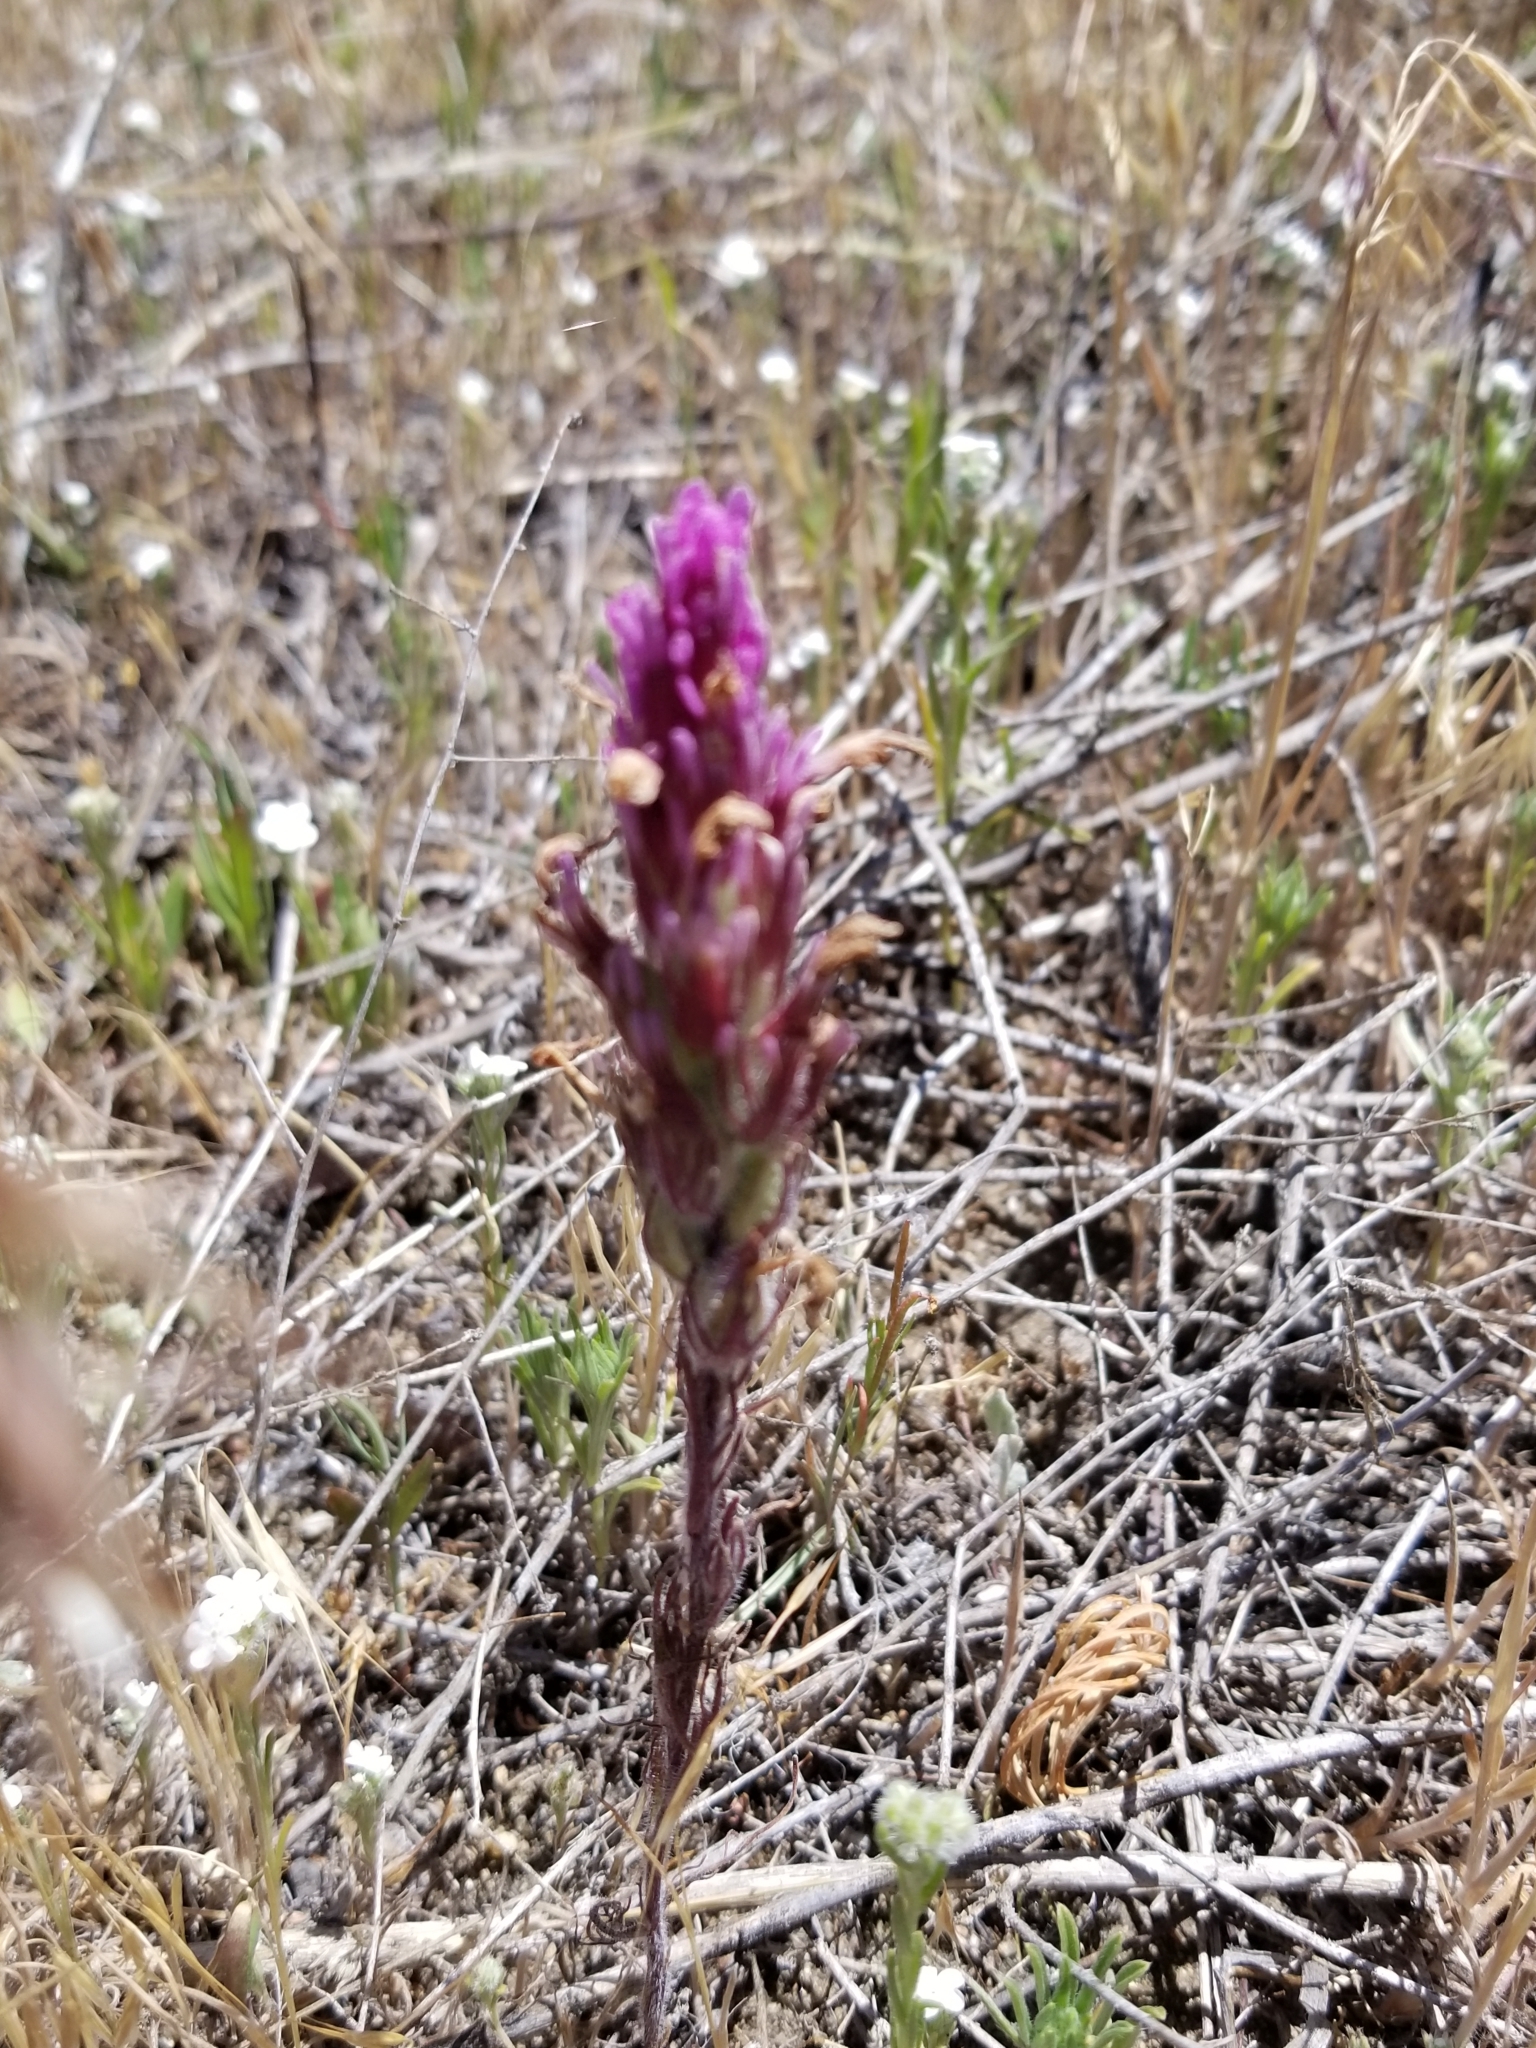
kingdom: Plantae
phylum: Tracheophyta
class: Magnoliopsida
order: Lamiales
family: Orobanchaceae
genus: Castilleja
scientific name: Castilleja exserta
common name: Purple owl-clover
